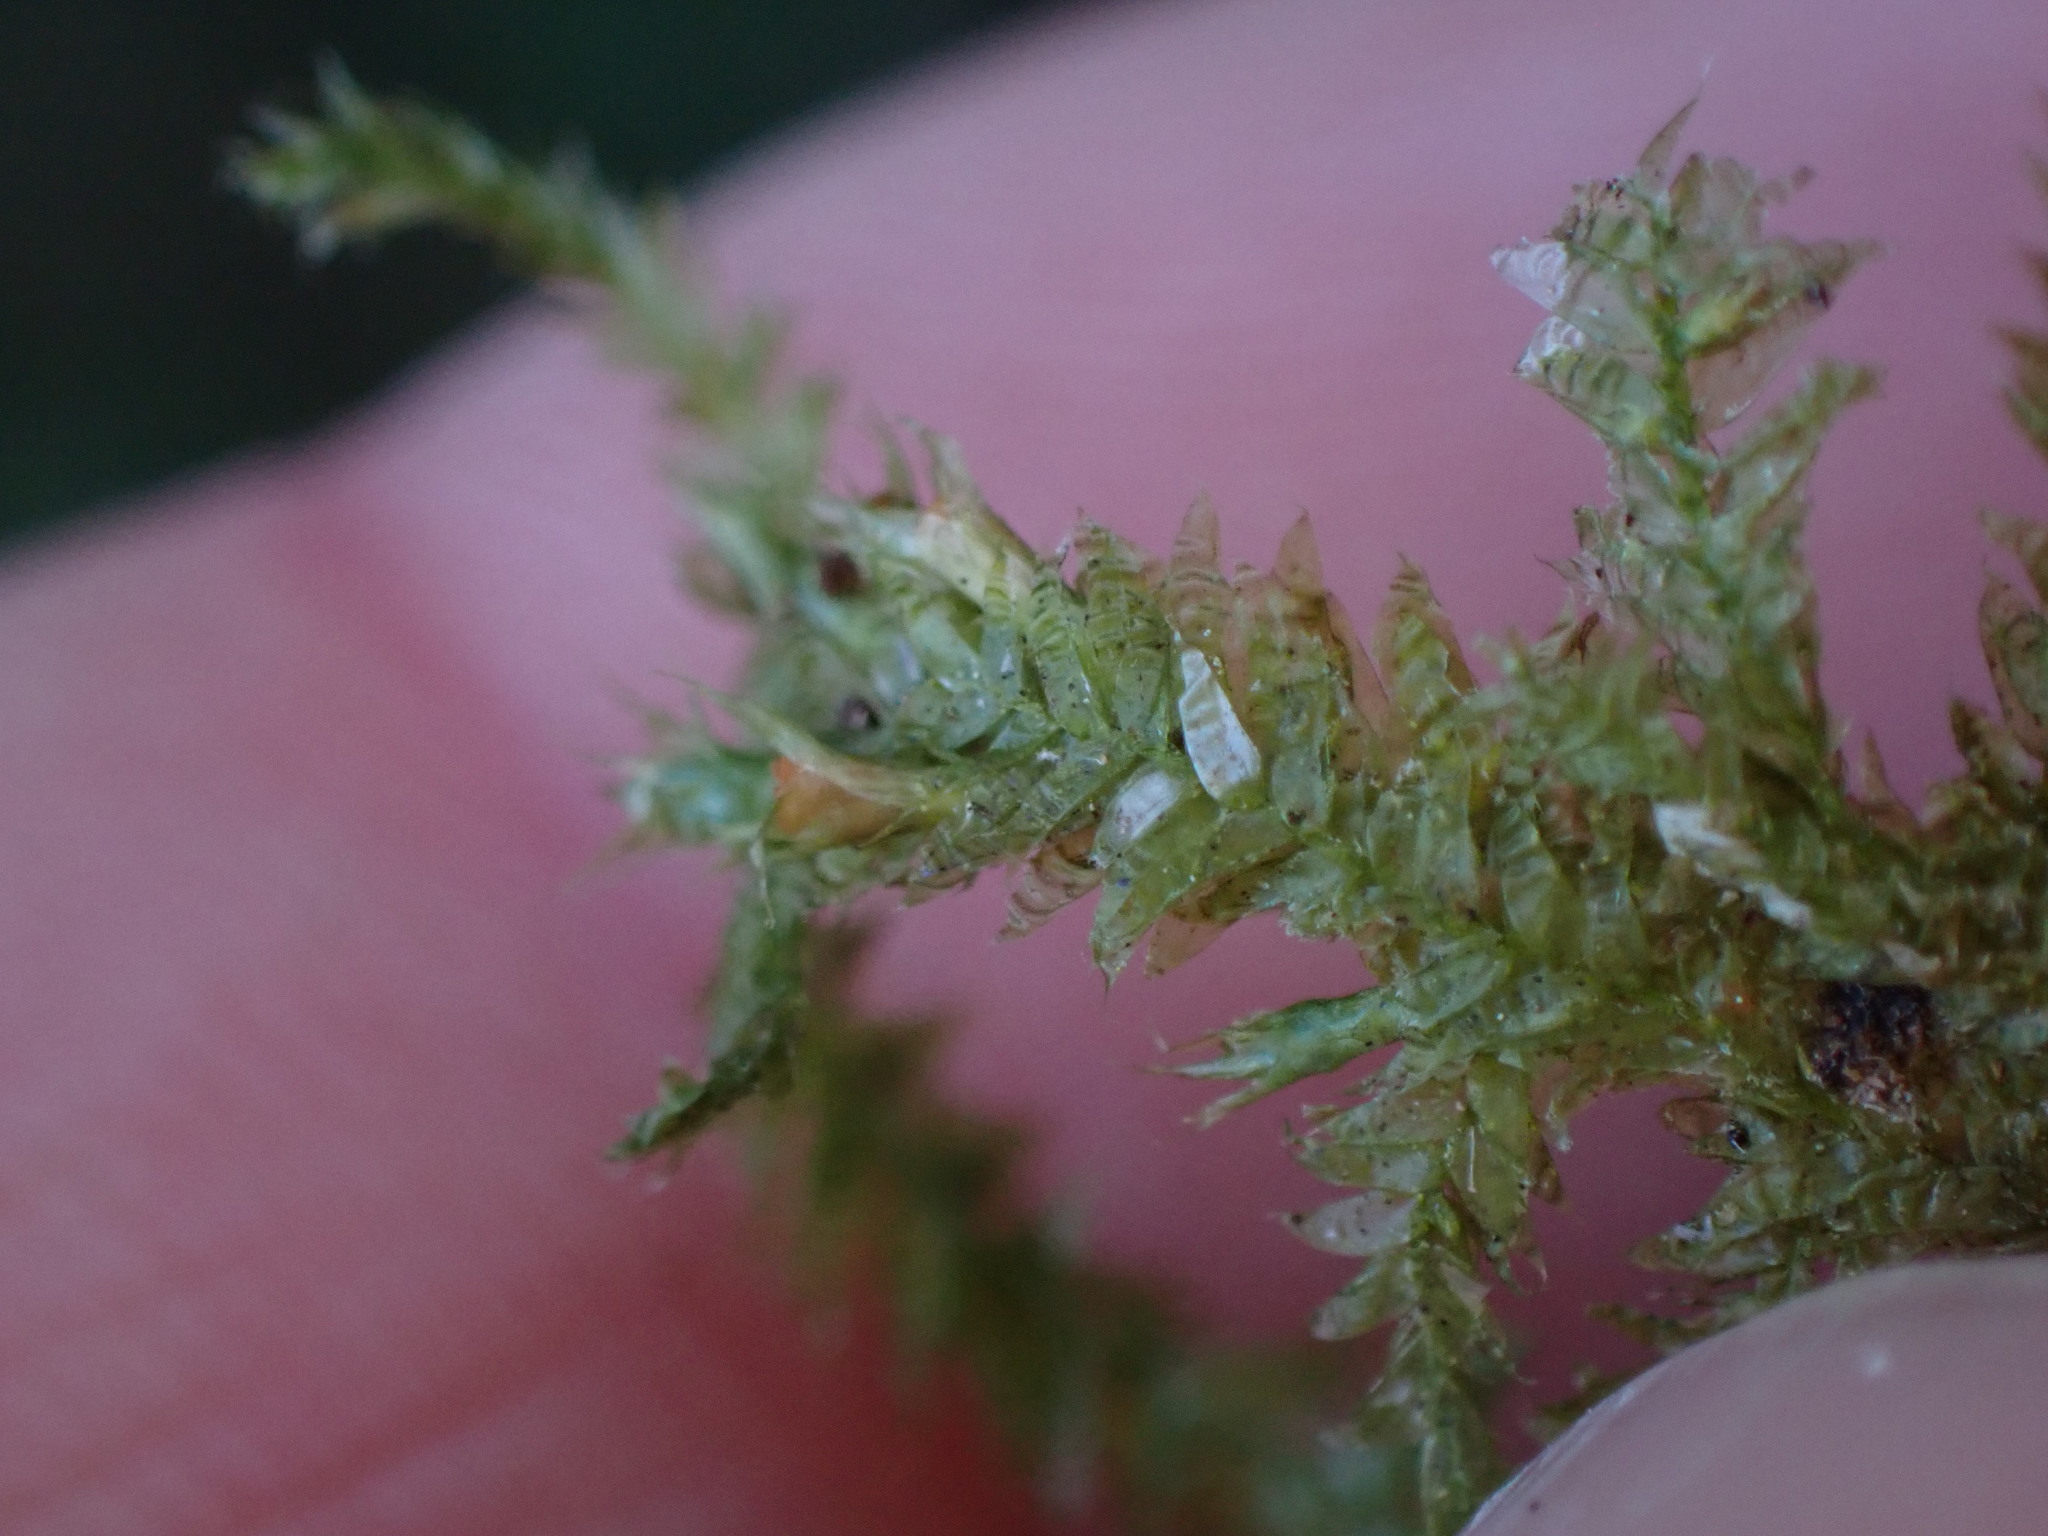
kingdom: Plantae
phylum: Bryophyta
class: Bryopsida
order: Hypnales
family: Neckeraceae
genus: Alleniella
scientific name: Alleniella hymenodonta
